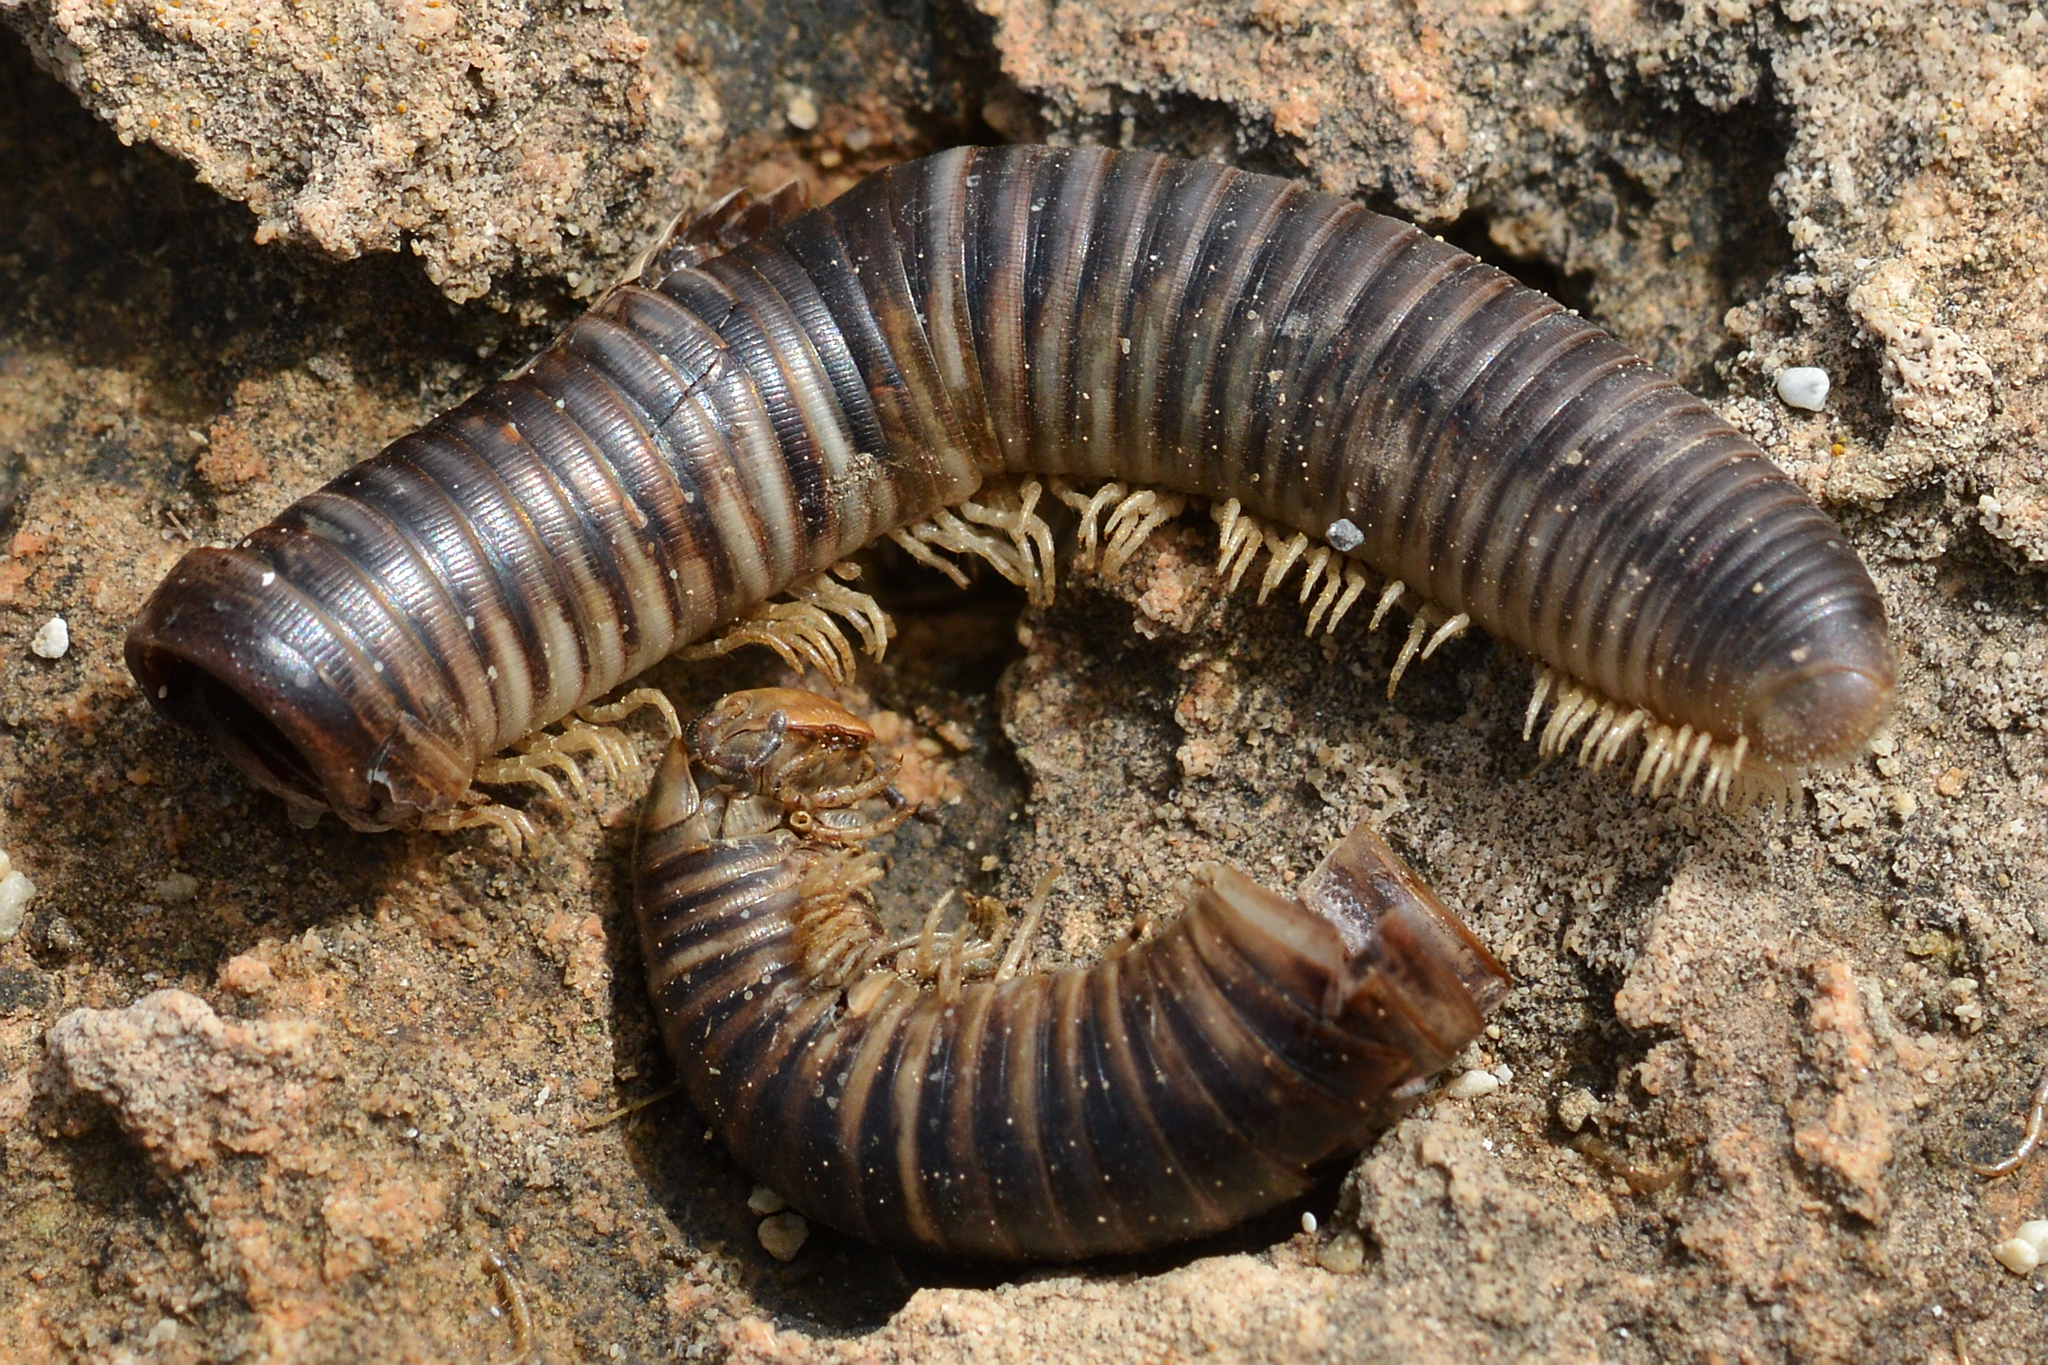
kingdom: Animalia
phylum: Arthropoda
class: Diplopoda
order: Julida
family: Julidae
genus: Pachyiulus
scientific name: Pachyiulus flavipes
